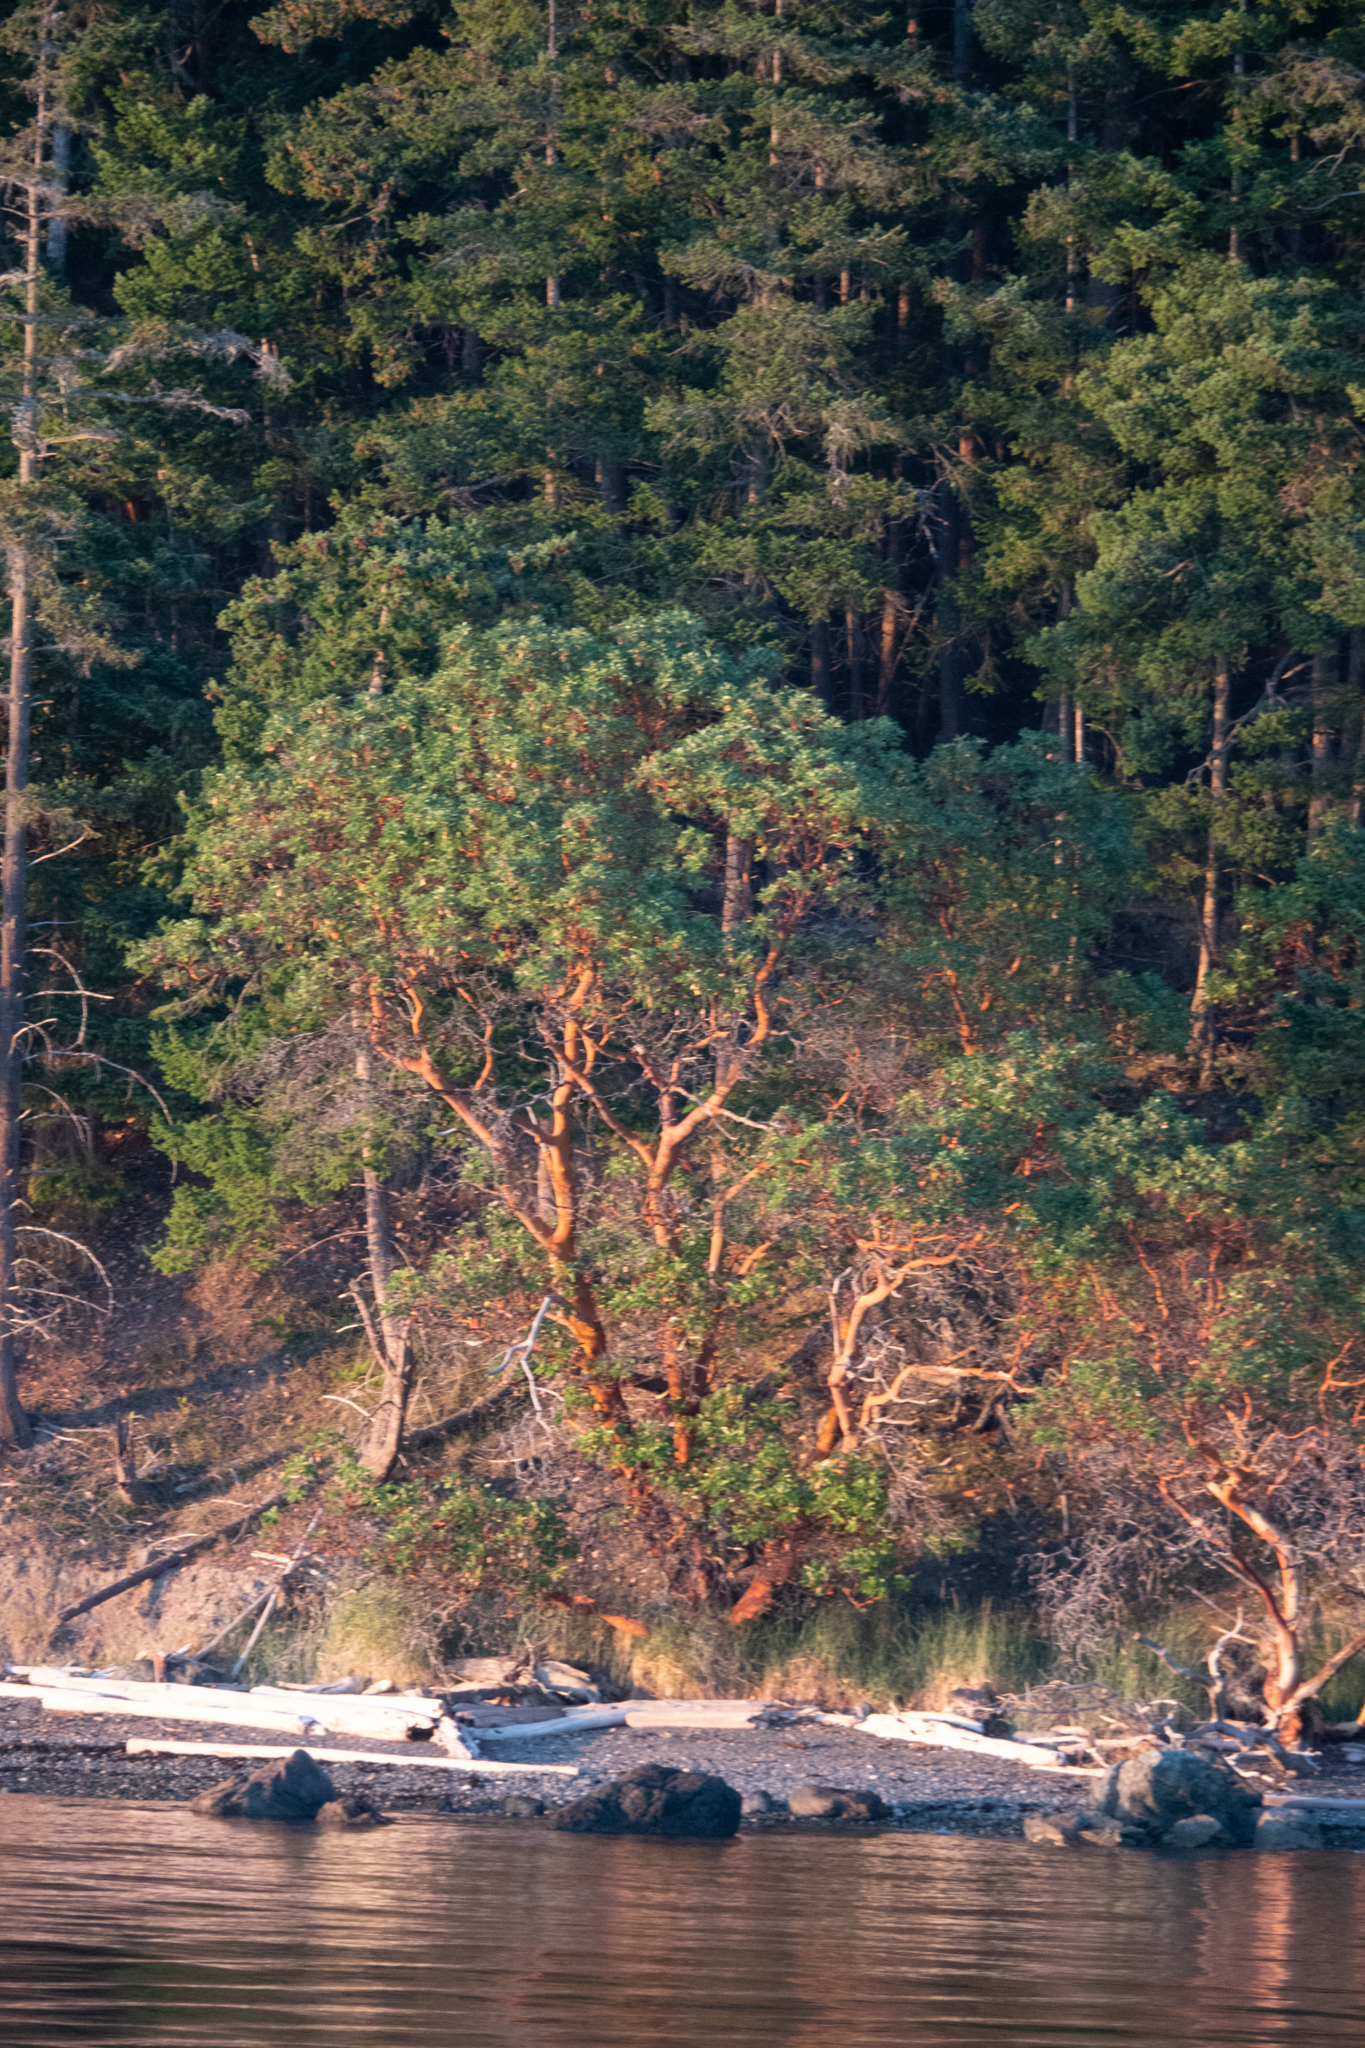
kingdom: Plantae
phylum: Tracheophyta
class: Magnoliopsida
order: Ericales
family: Ericaceae
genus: Arbutus
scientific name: Arbutus menziesii
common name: Pacific madrone
